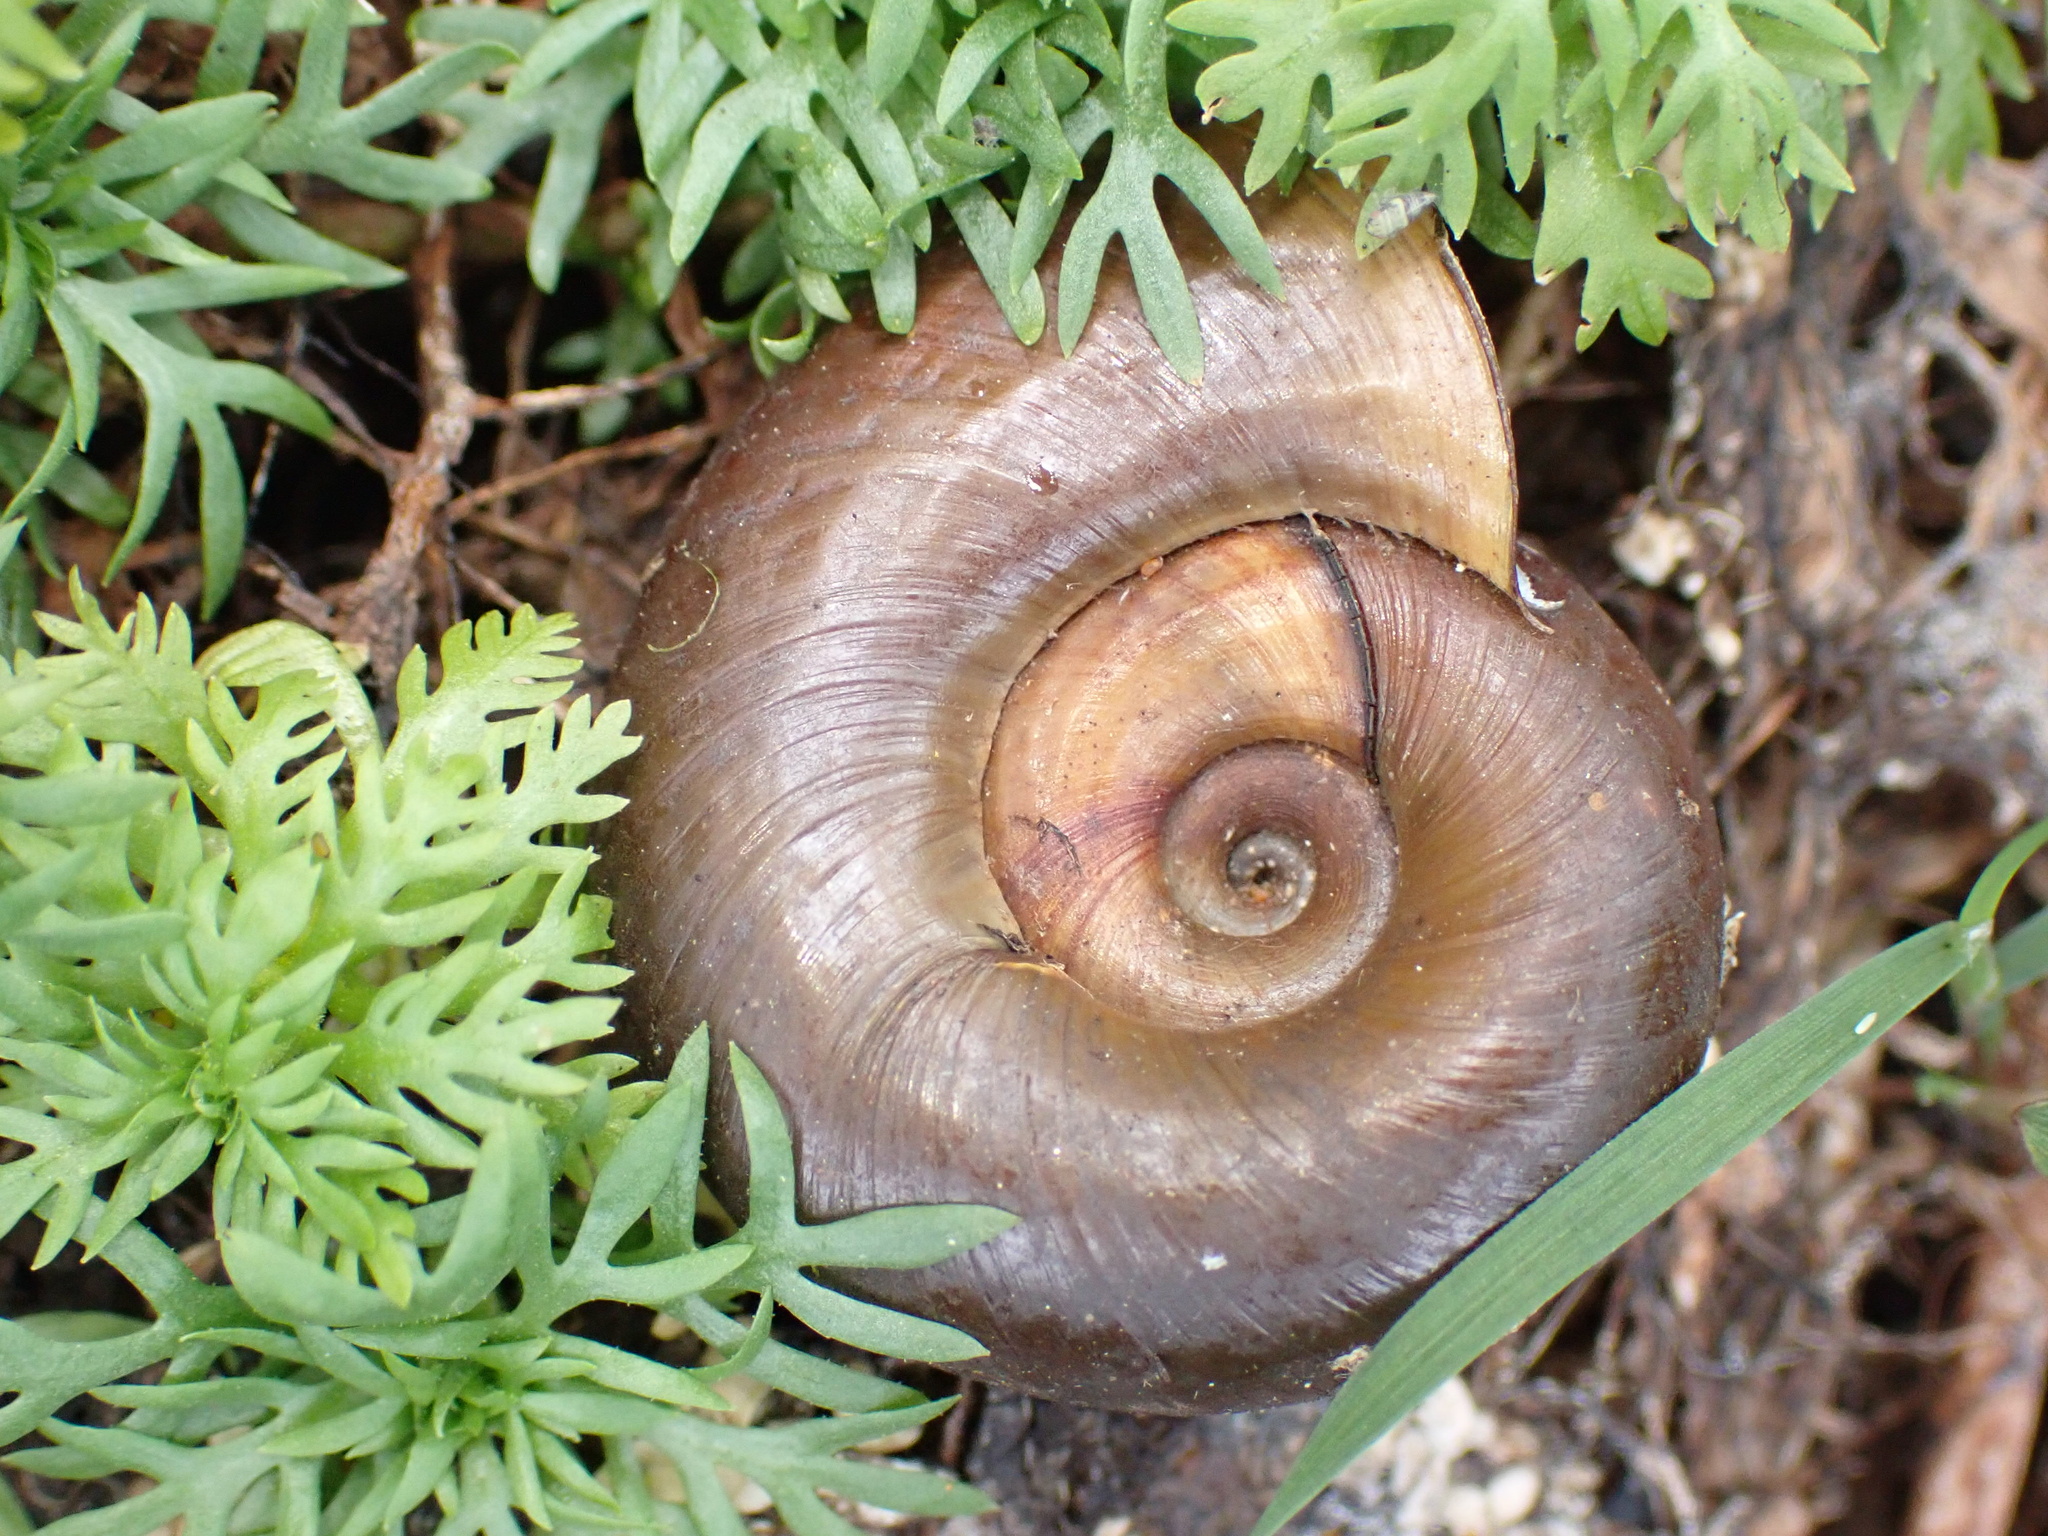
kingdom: Animalia
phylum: Mollusca
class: Gastropoda
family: Planorbidae
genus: Planorbarius
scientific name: Planorbarius corneus
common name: Great ramshorn
